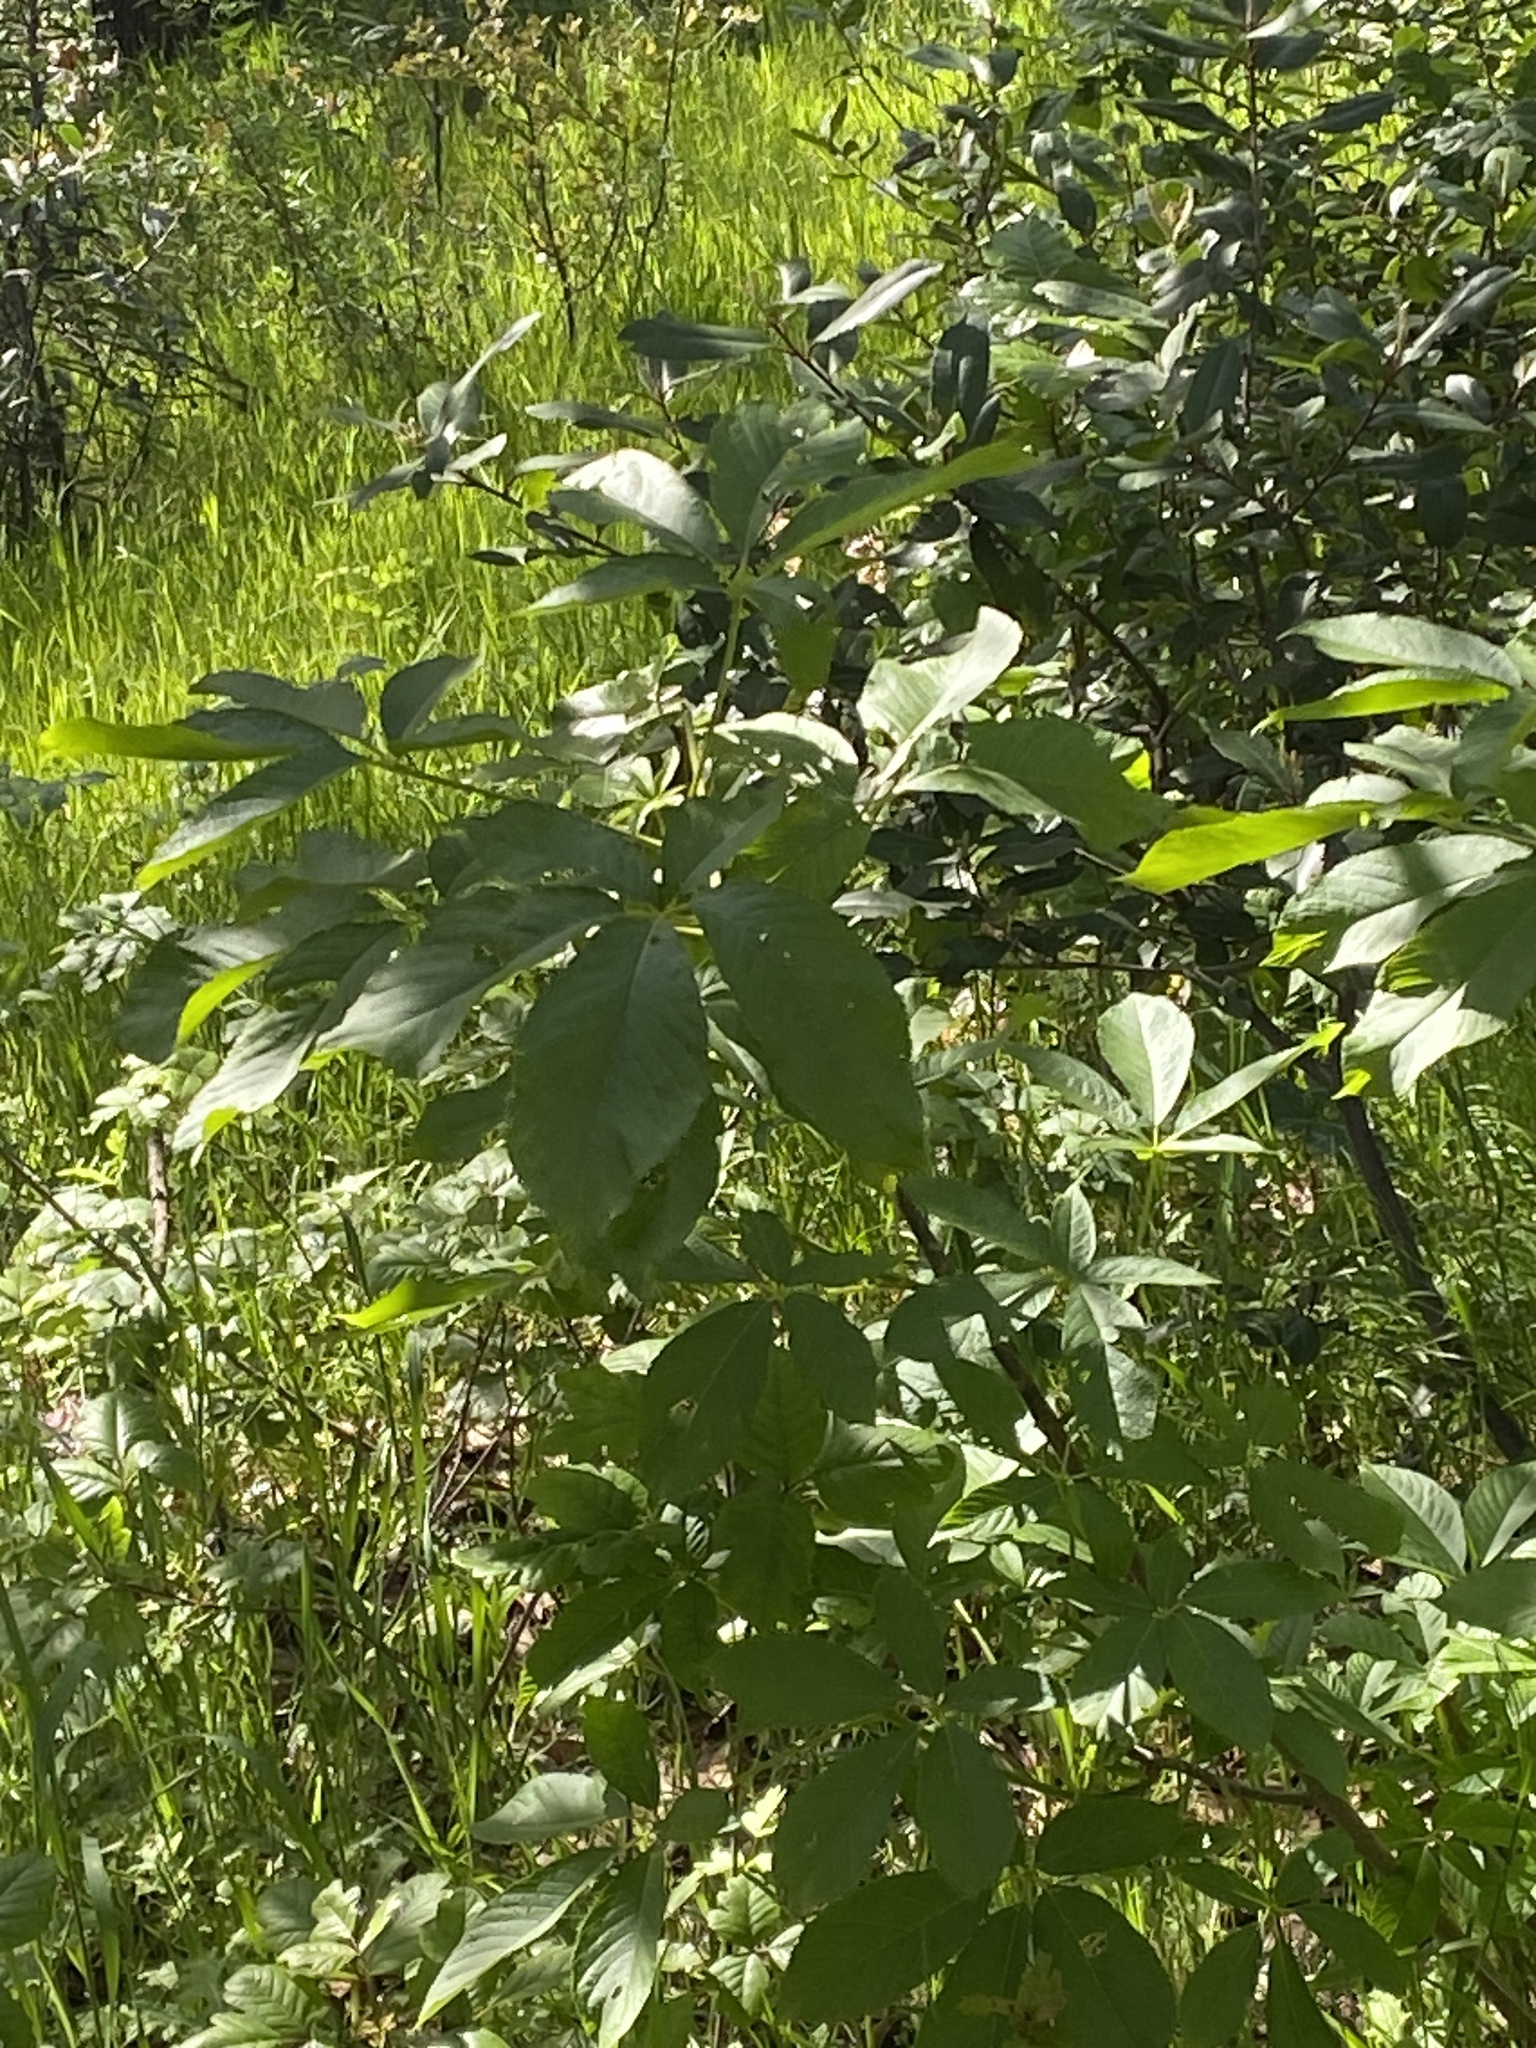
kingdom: Plantae
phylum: Tracheophyta
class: Magnoliopsida
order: Sapindales
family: Sapindaceae
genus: Aesculus
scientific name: Aesculus californica
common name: California buckeye
